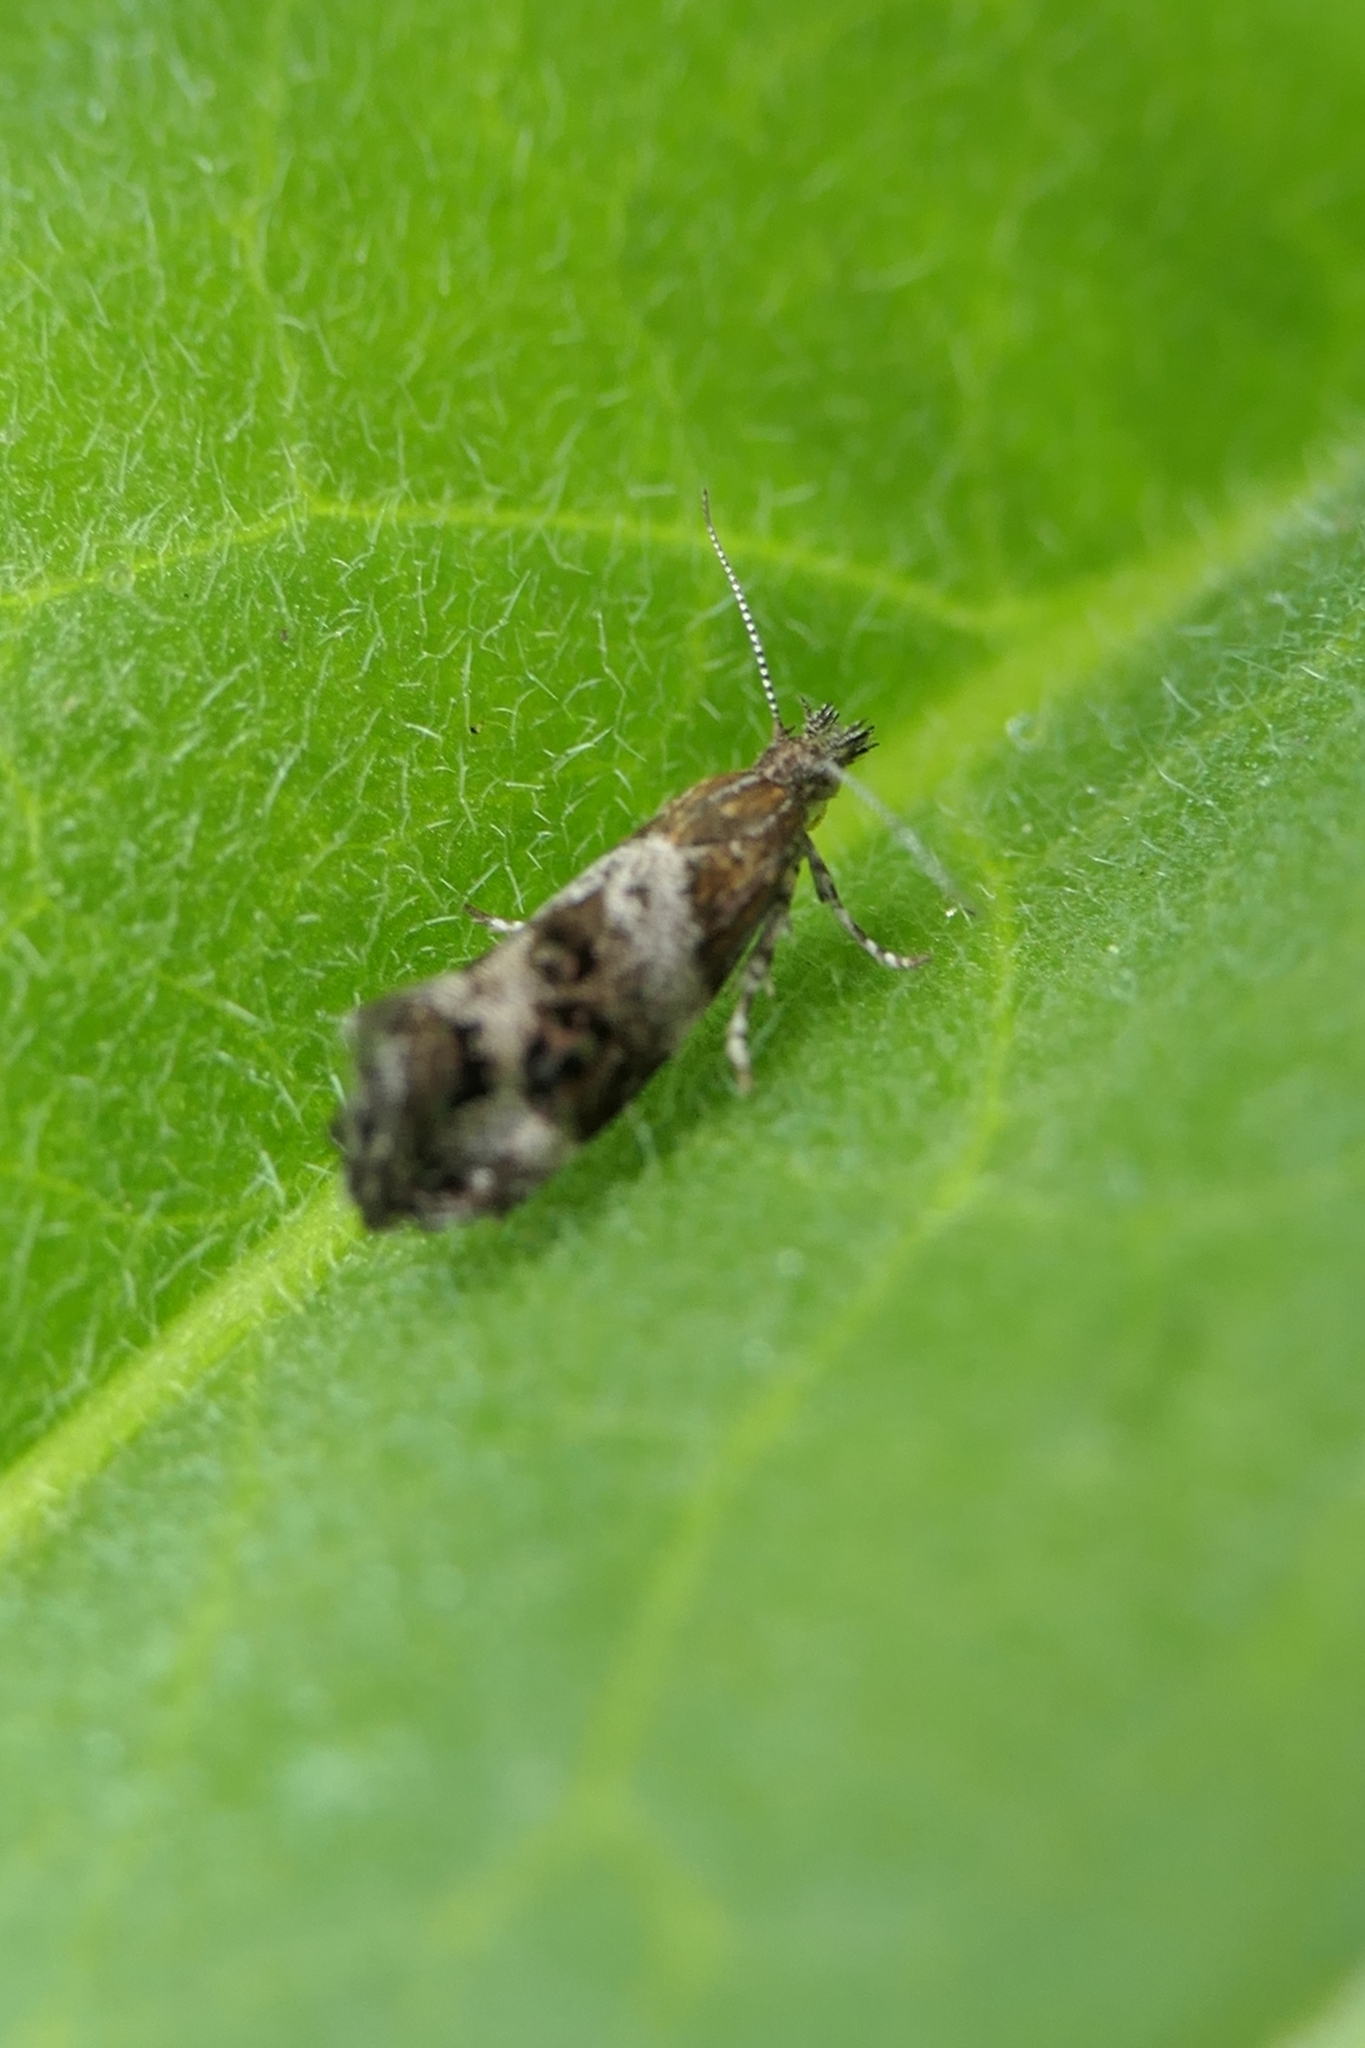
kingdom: Animalia
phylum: Arthropoda
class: Insecta
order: Lepidoptera
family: Choreutidae
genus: Tebenna
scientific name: Tebenna micalis
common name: Vagrant twitcher
